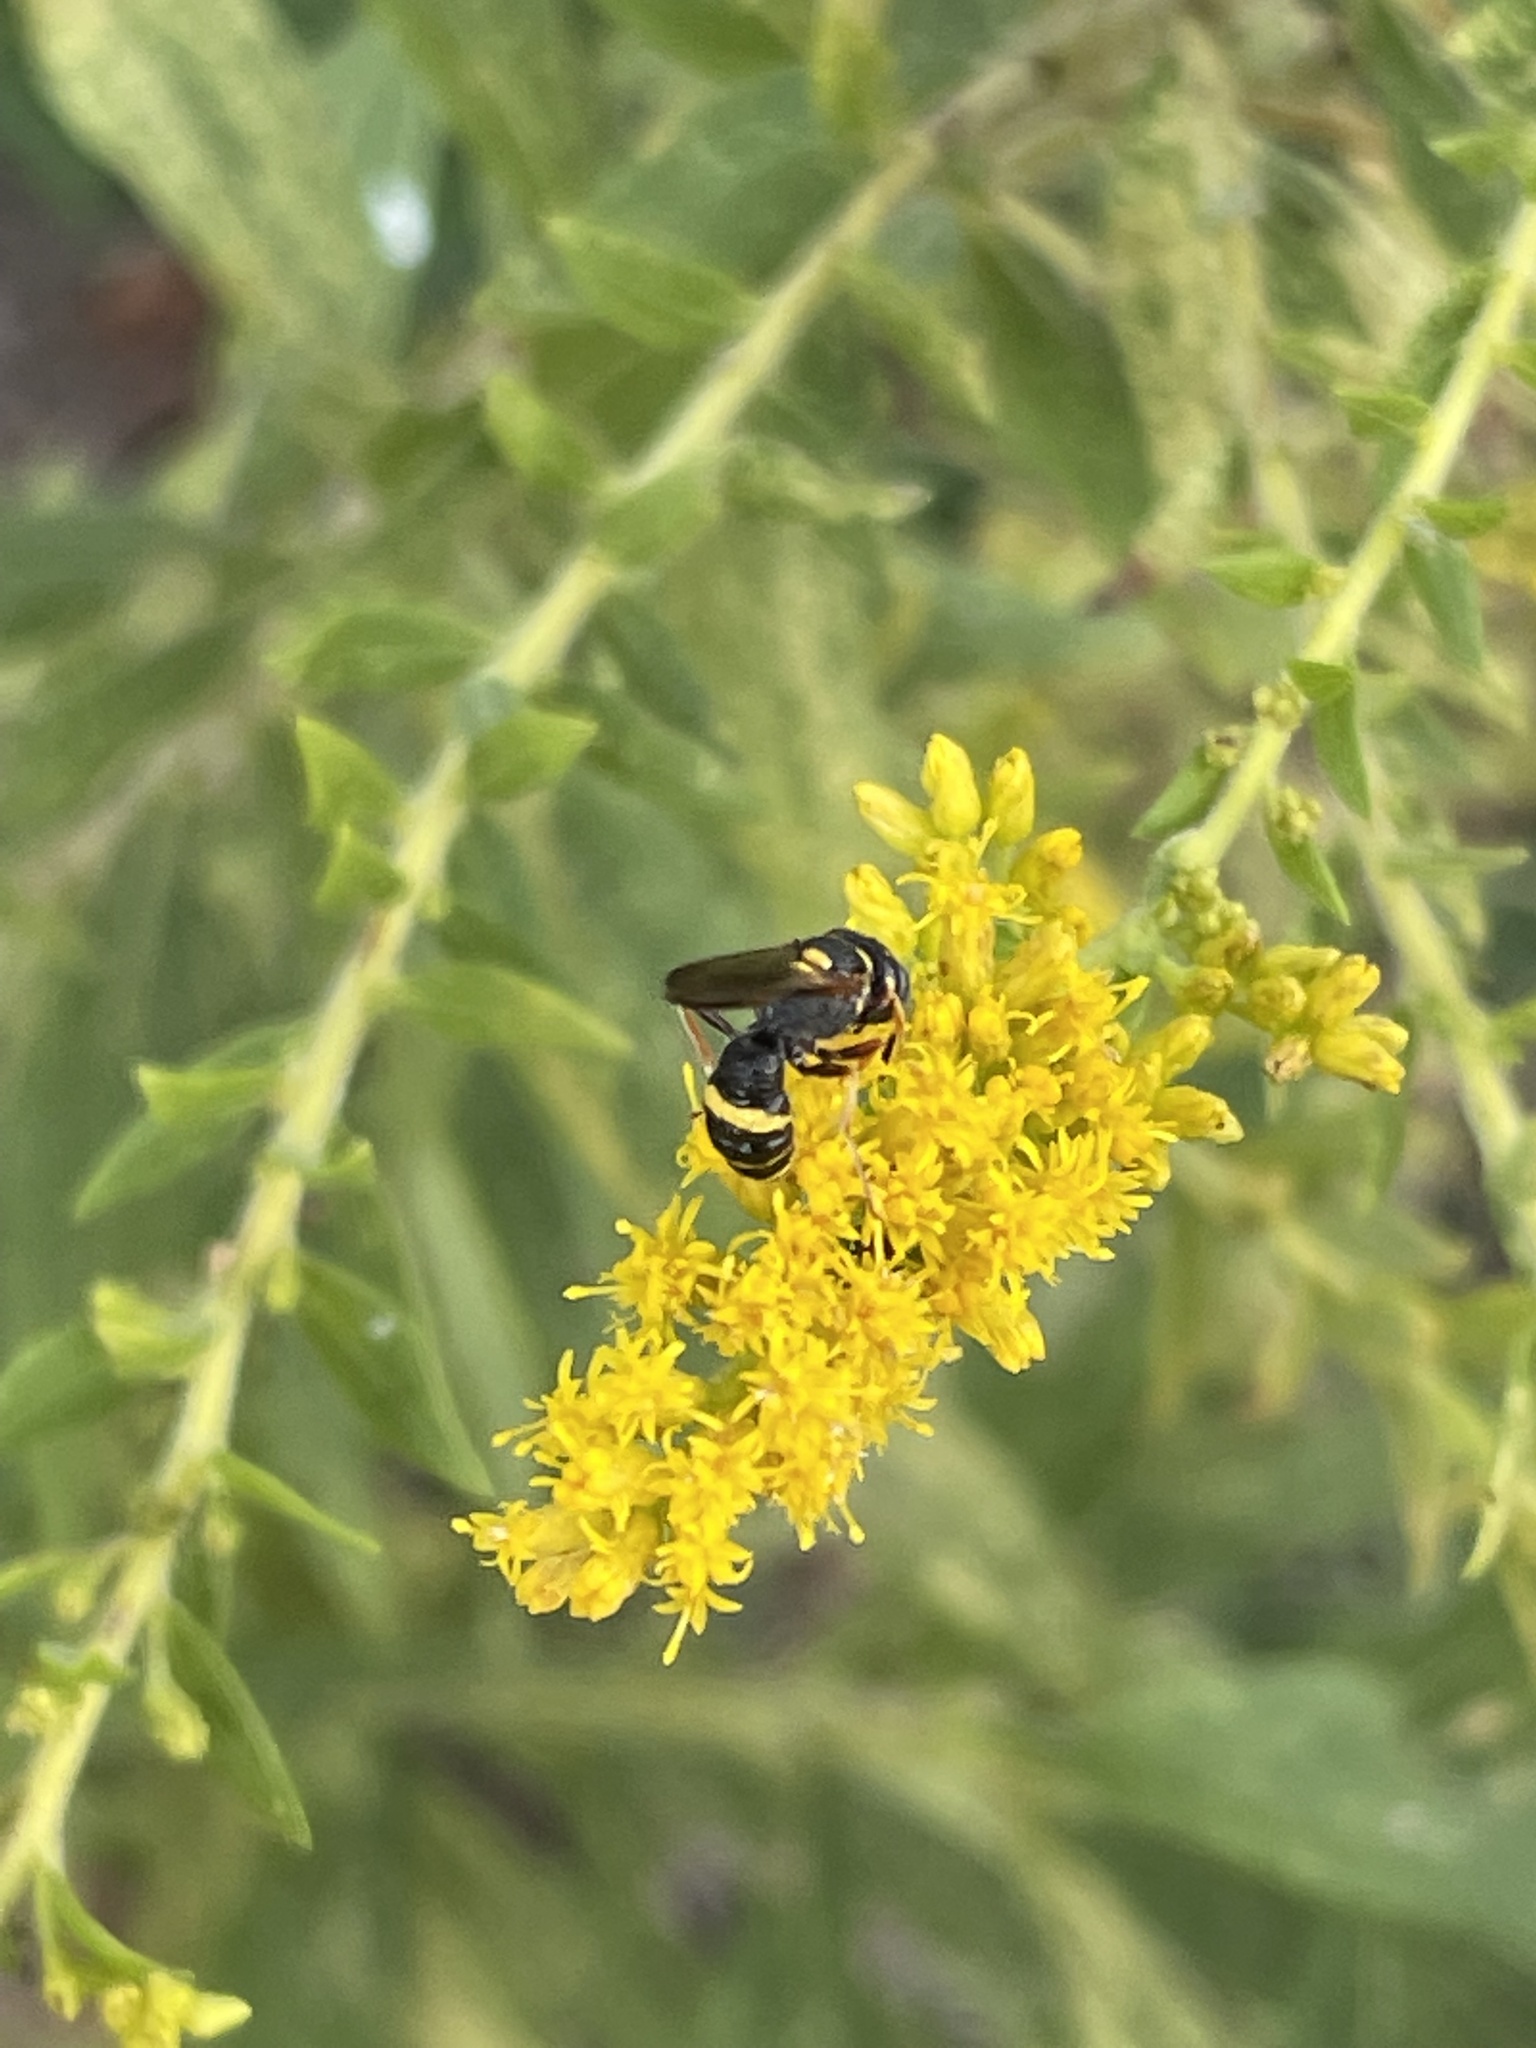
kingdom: Animalia
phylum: Arthropoda
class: Insecta
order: Hymenoptera
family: Crabronidae
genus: Philanthus
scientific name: Philanthus gibbosus
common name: Humped beewolf
